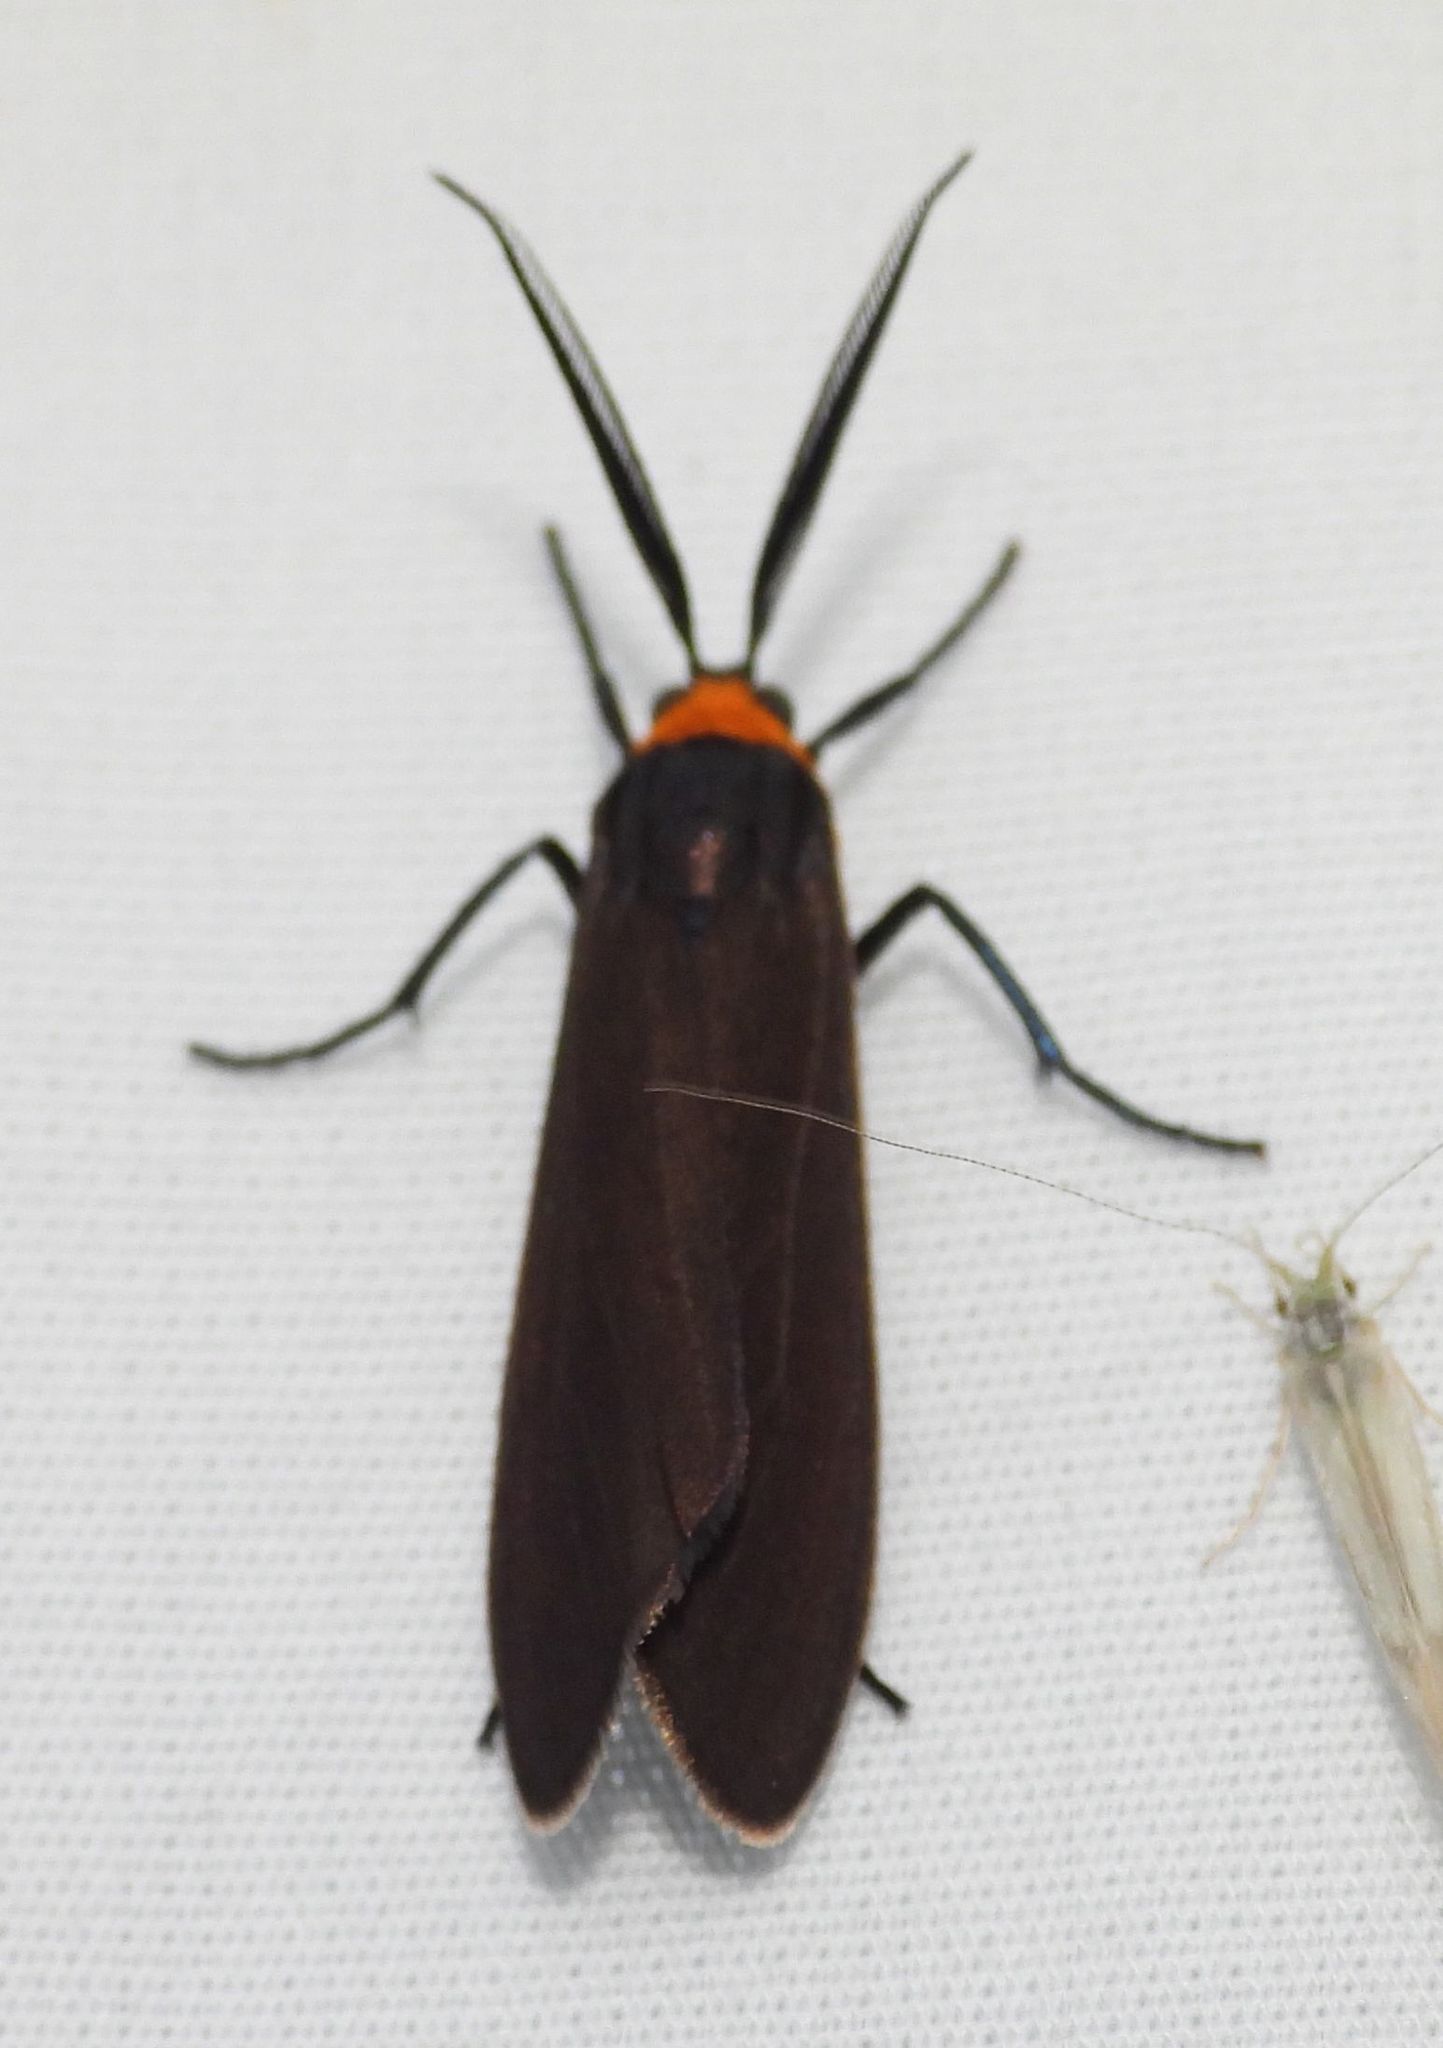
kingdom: Animalia
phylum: Arthropoda
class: Insecta
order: Lepidoptera
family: Erebidae
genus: Cisseps
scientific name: Cisseps fulvicollis
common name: Yellow-collared scape moth
